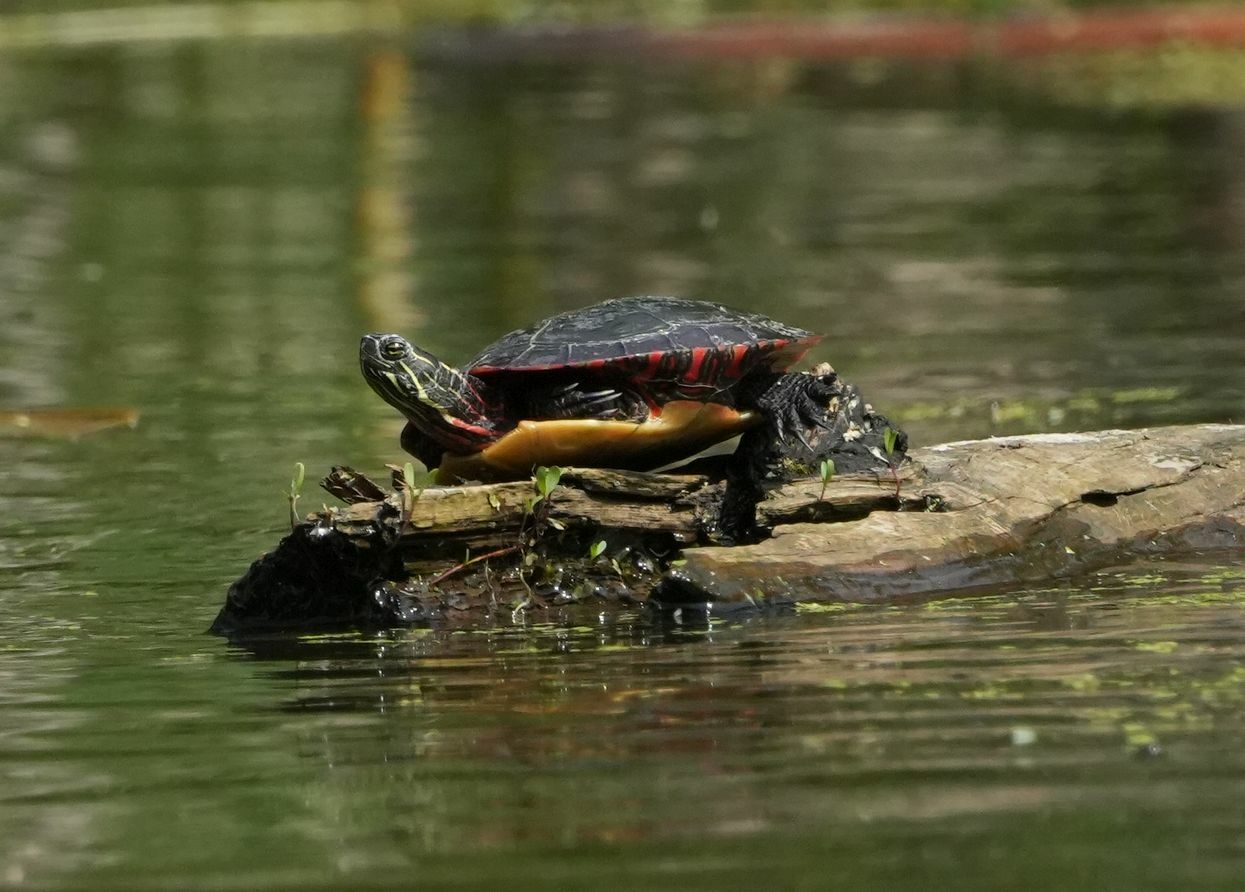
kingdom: Animalia
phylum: Chordata
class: Testudines
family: Emydidae
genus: Chrysemys
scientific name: Chrysemys picta
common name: Painted turtle
